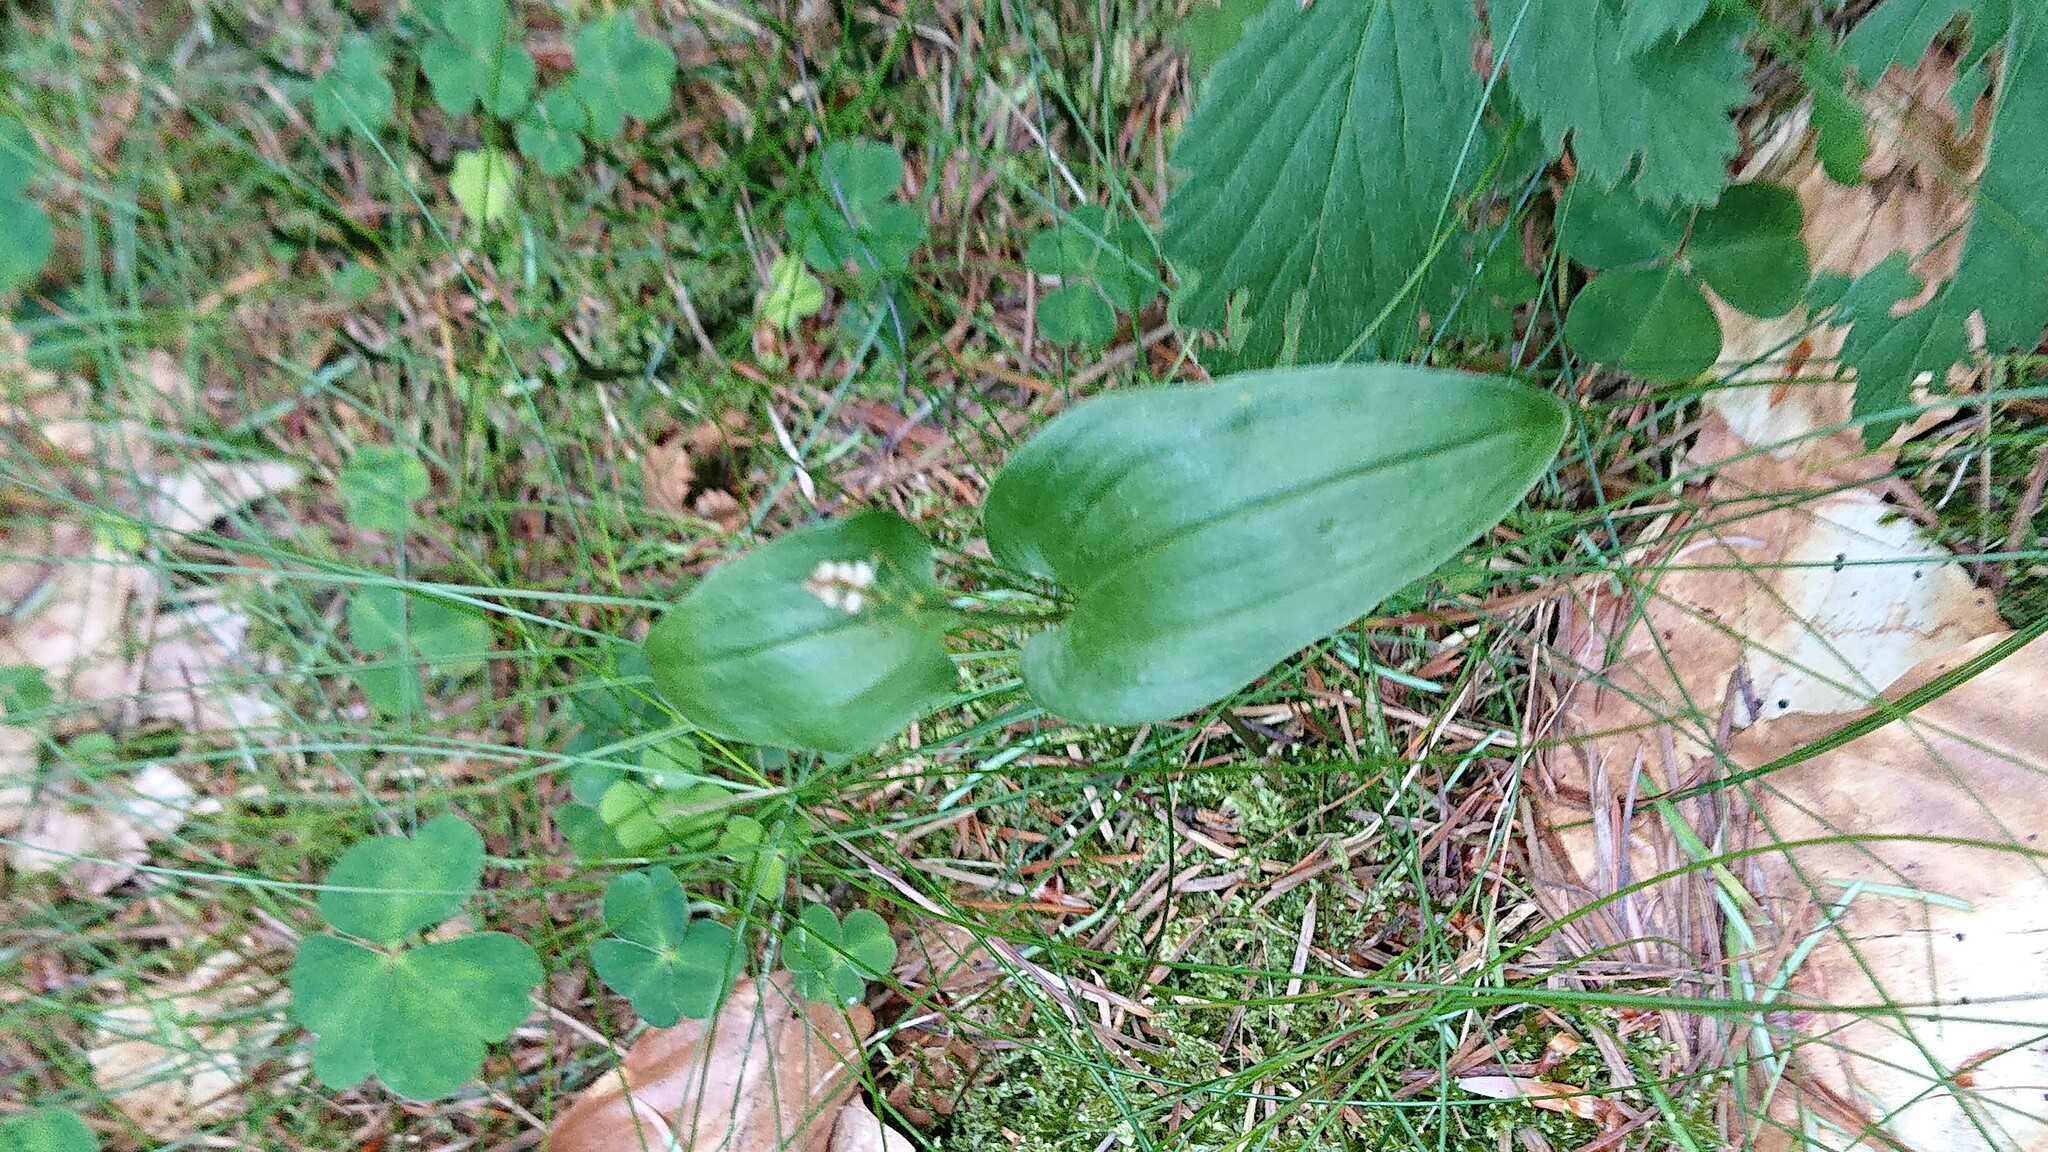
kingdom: Plantae
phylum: Tracheophyta
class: Liliopsida
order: Asparagales
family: Asparagaceae
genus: Maianthemum
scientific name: Maianthemum bifolium
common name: May lily
